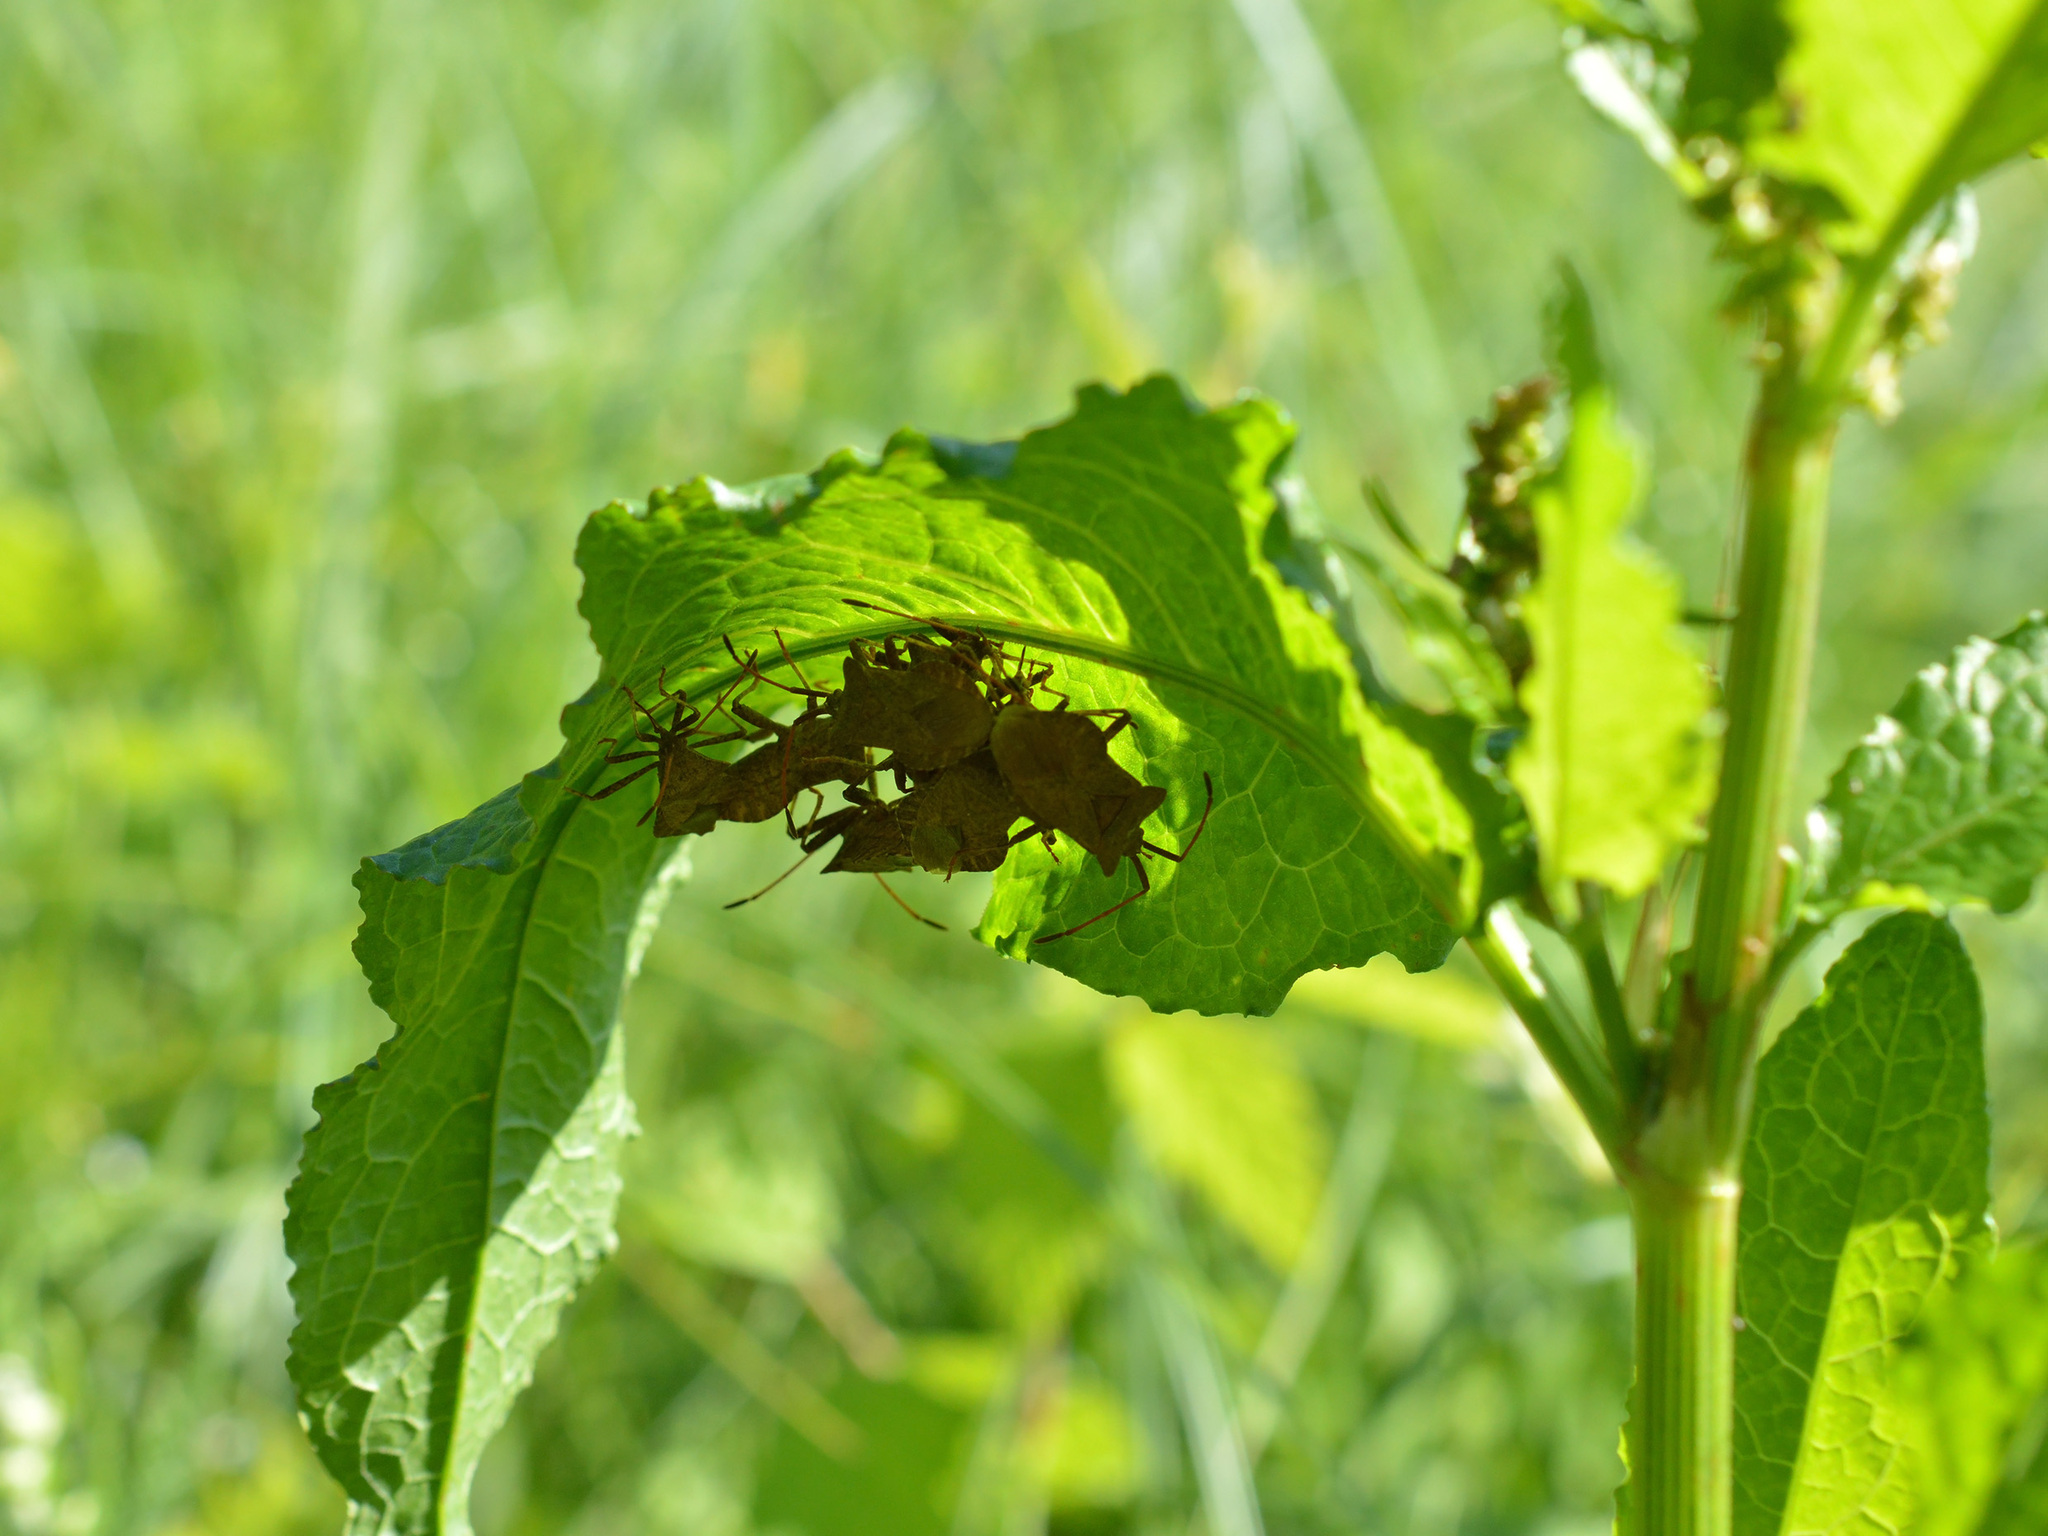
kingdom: Animalia
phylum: Arthropoda
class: Insecta
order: Hemiptera
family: Coreidae
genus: Coreus
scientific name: Coreus marginatus
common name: Dock bug
